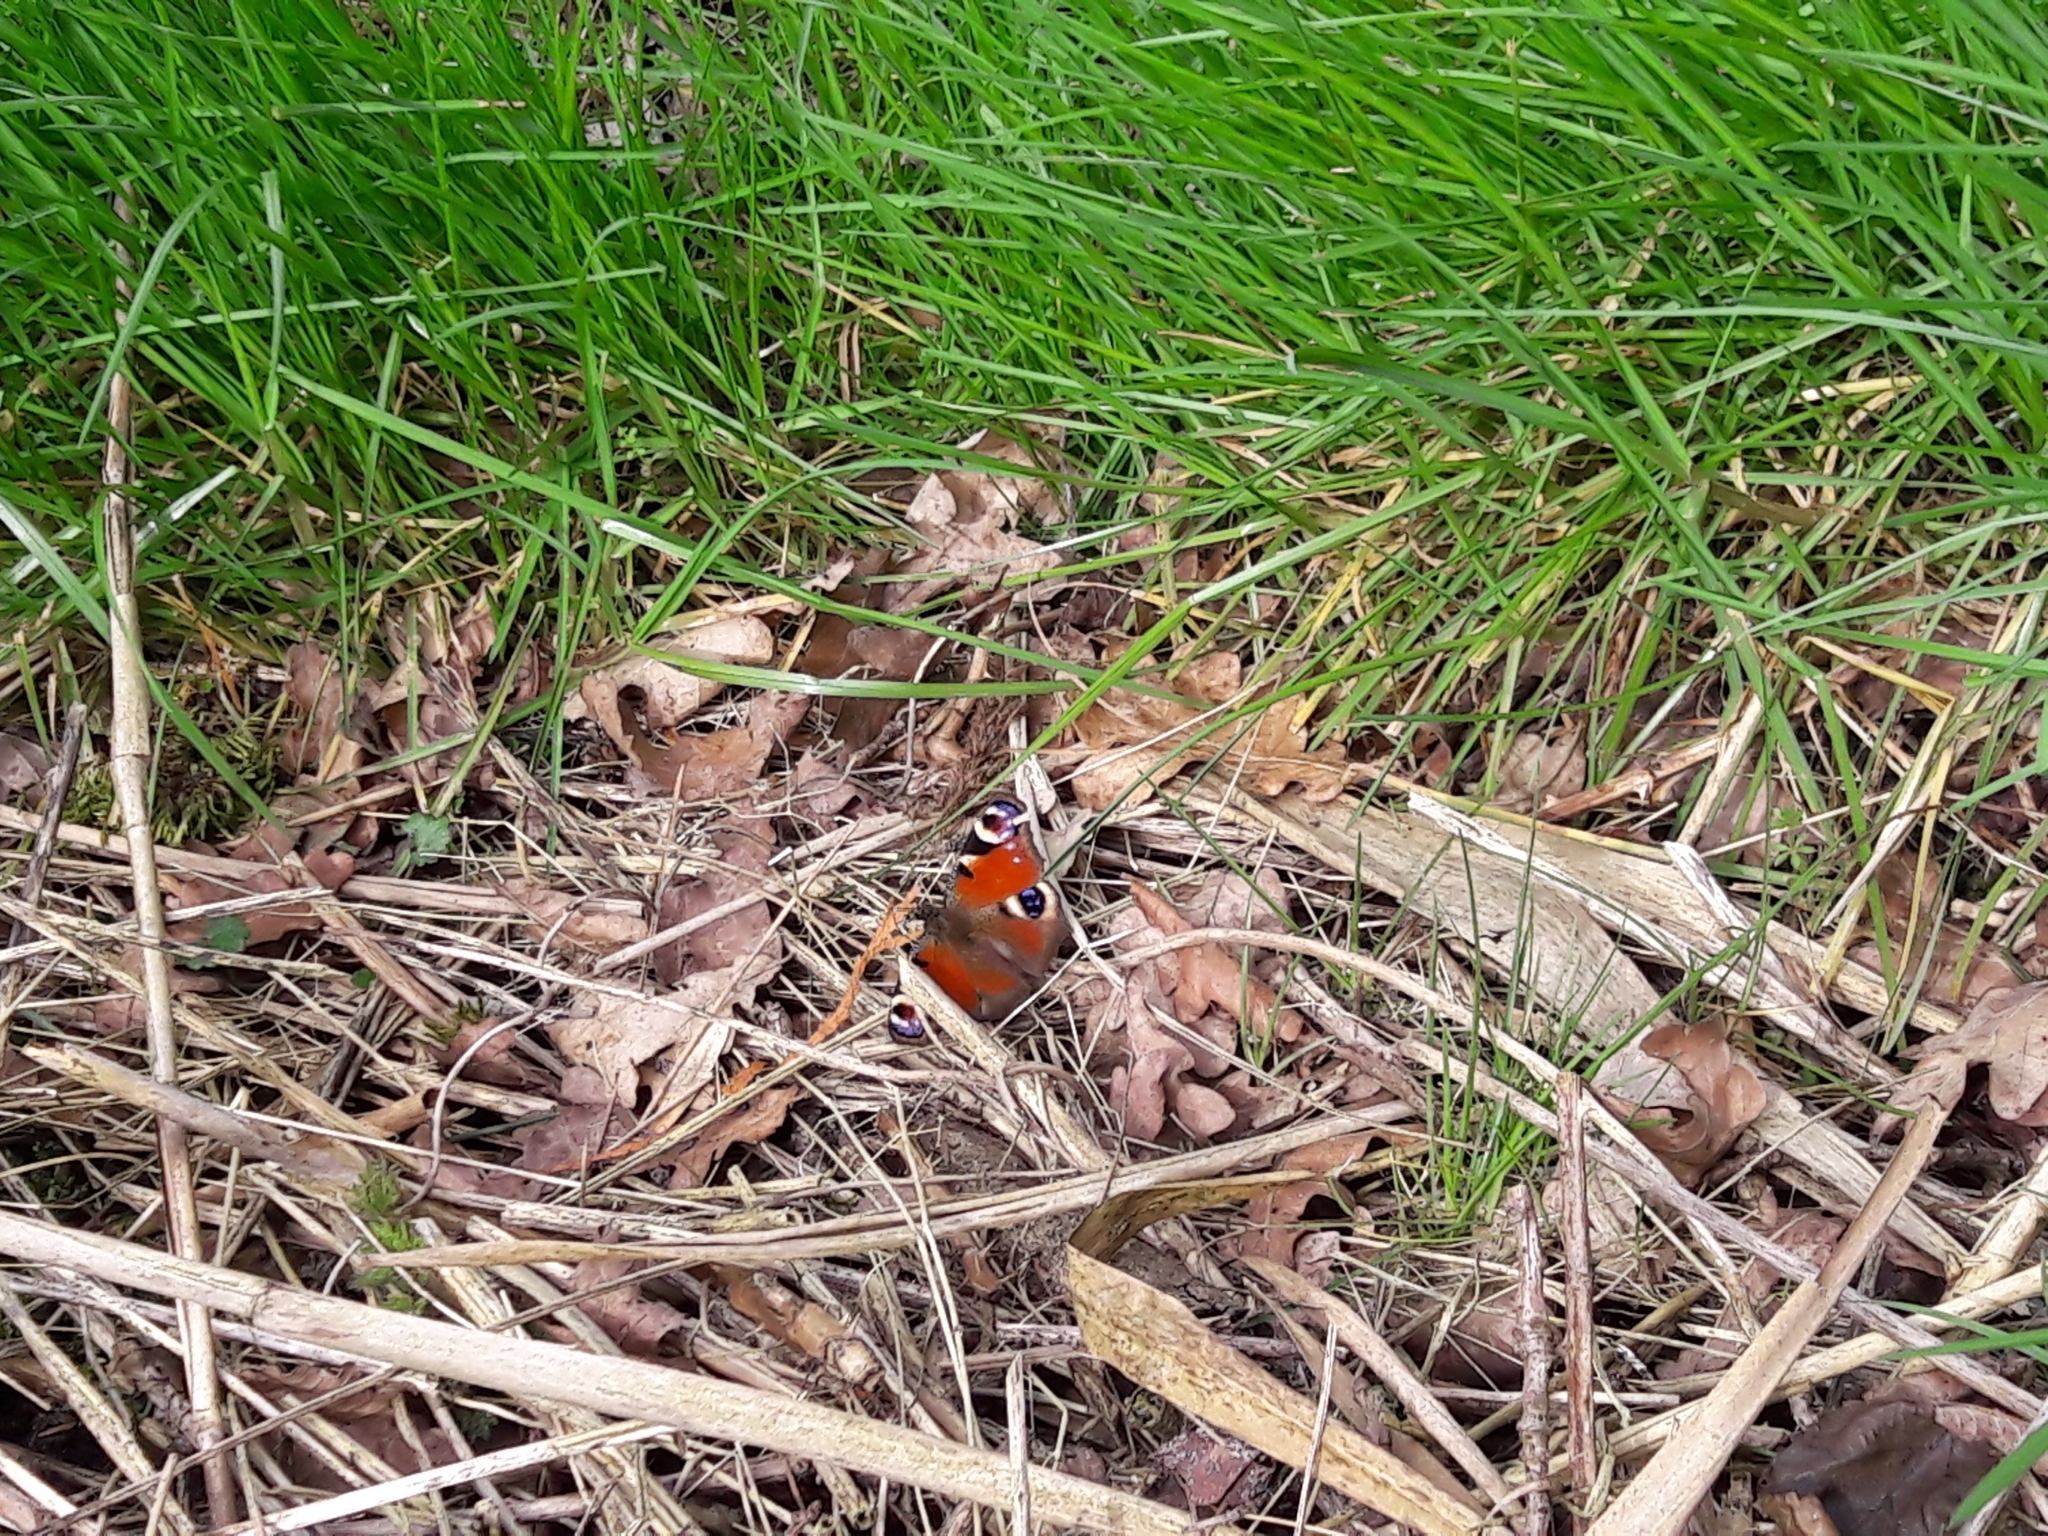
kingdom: Animalia
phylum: Arthropoda
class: Insecta
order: Lepidoptera
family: Nymphalidae
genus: Aglais
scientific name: Aglais io
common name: Peacock
